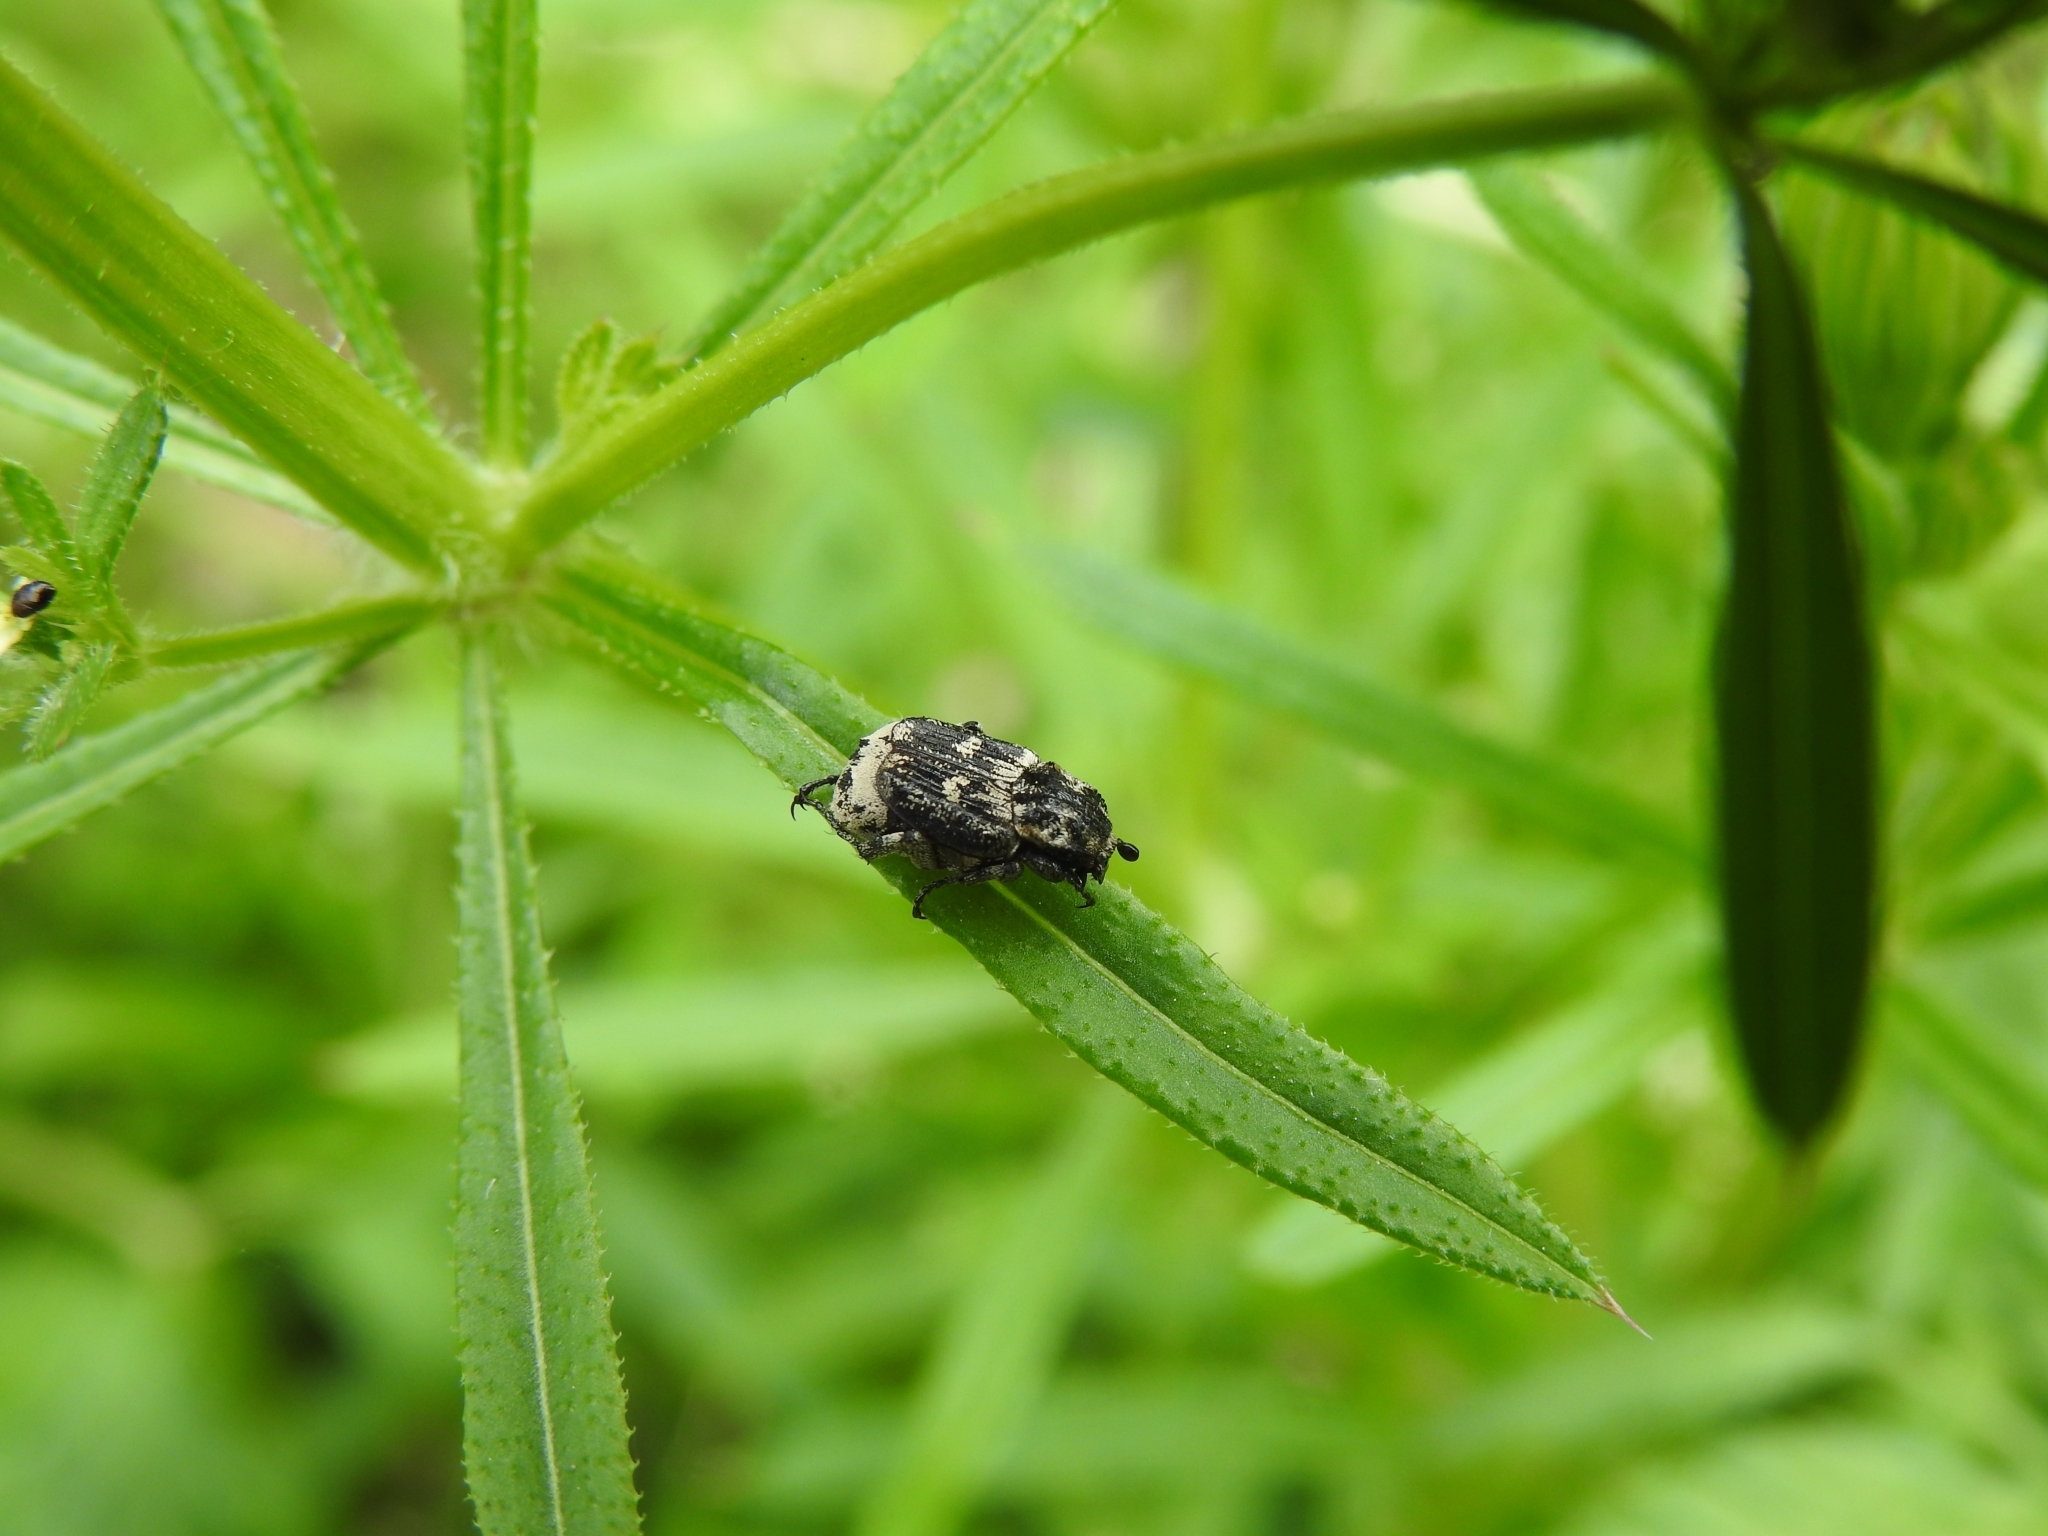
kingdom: Animalia
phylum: Arthropoda
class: Insecta
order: Coleoptera
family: Scarabaeidae
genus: Valgus
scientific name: Valgus hemipterus
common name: Bug flower chafer
